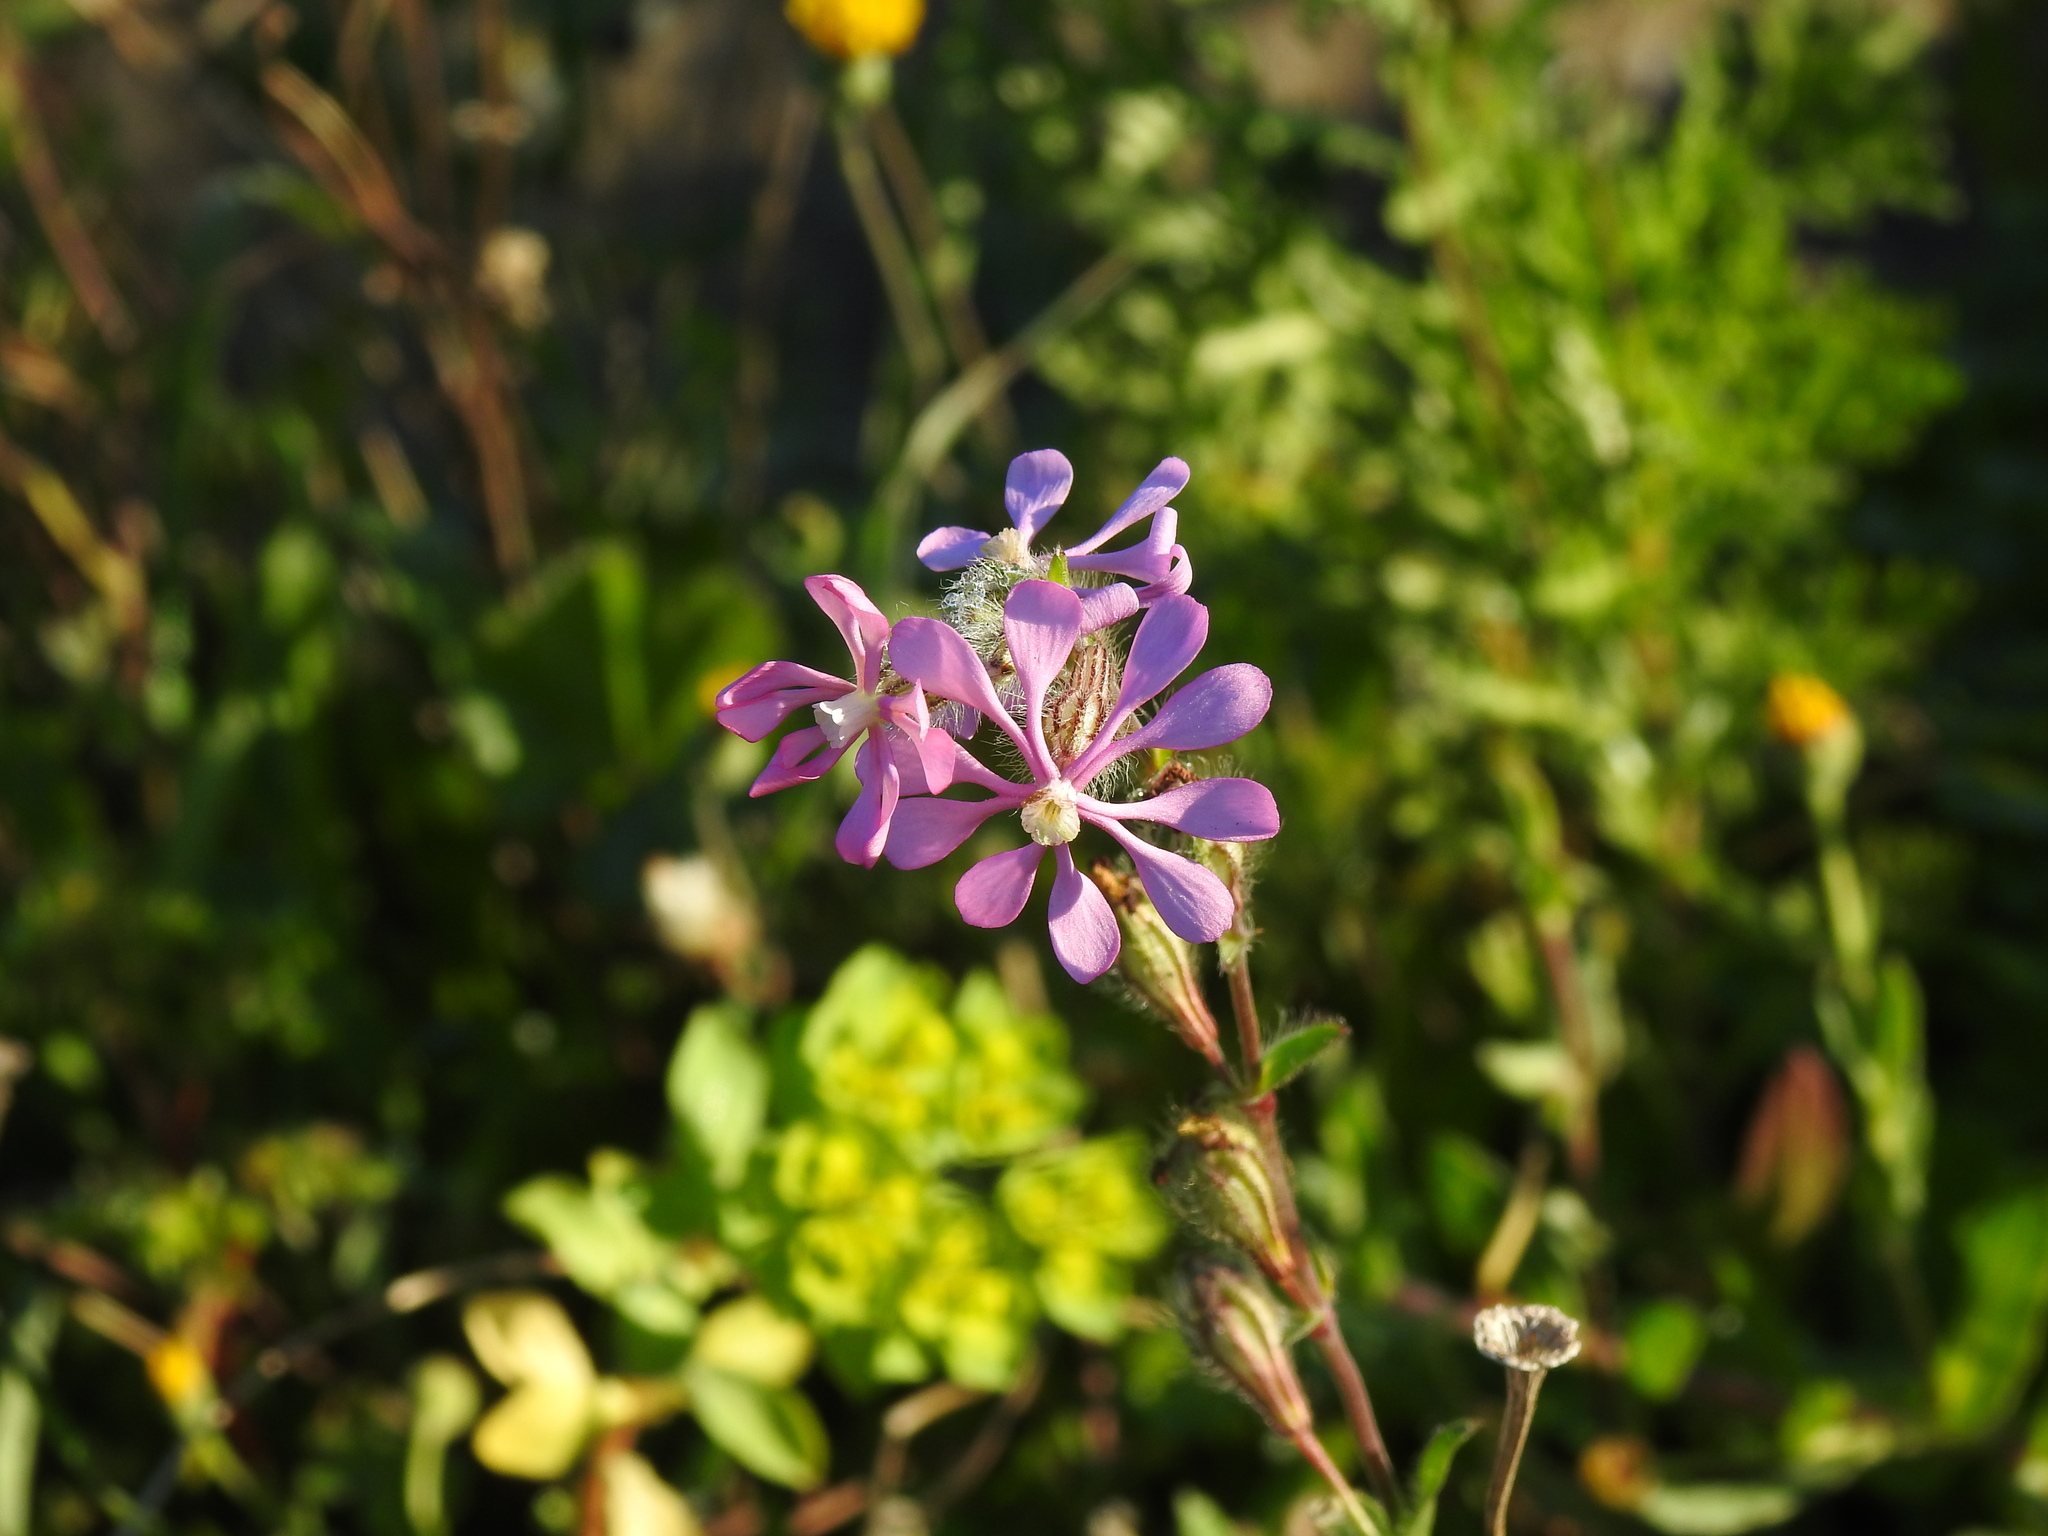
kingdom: Plantae
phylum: Tracheophyta
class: Magnoliopsida
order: Caryophyllales
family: Caryophyllaceae
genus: Silene
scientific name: Silene colorata
